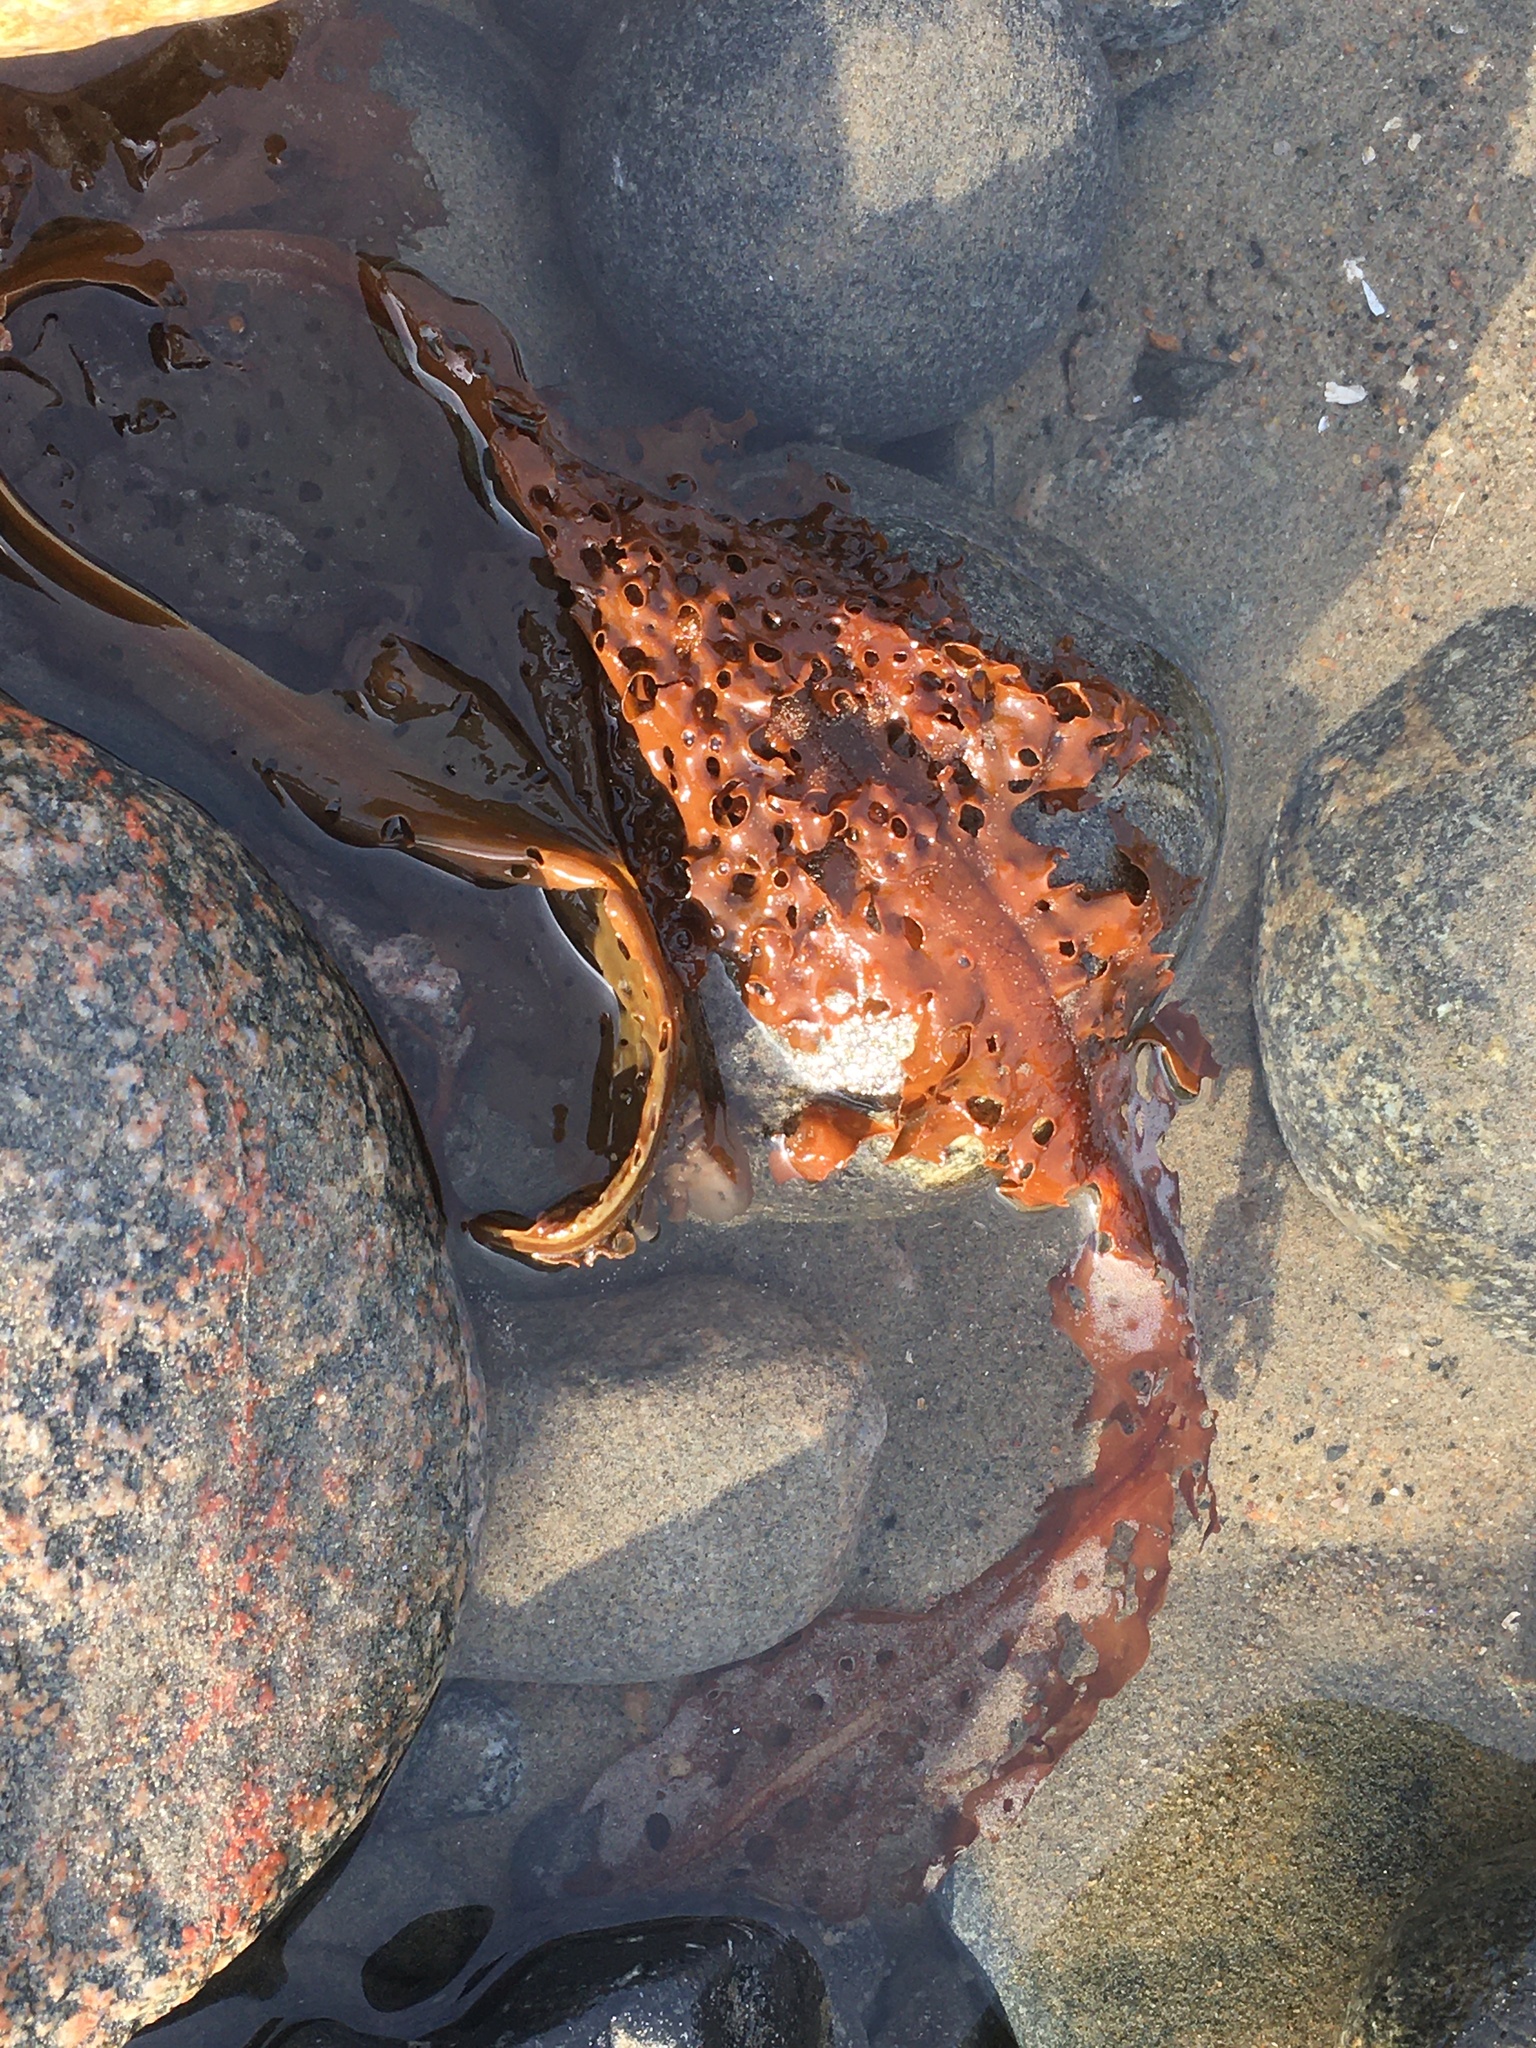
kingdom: Chromista
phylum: Ochrophyta
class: Phaeophyceae
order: Laminariales
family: Costariaceae
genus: Agarum
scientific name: Agarum clathratum
